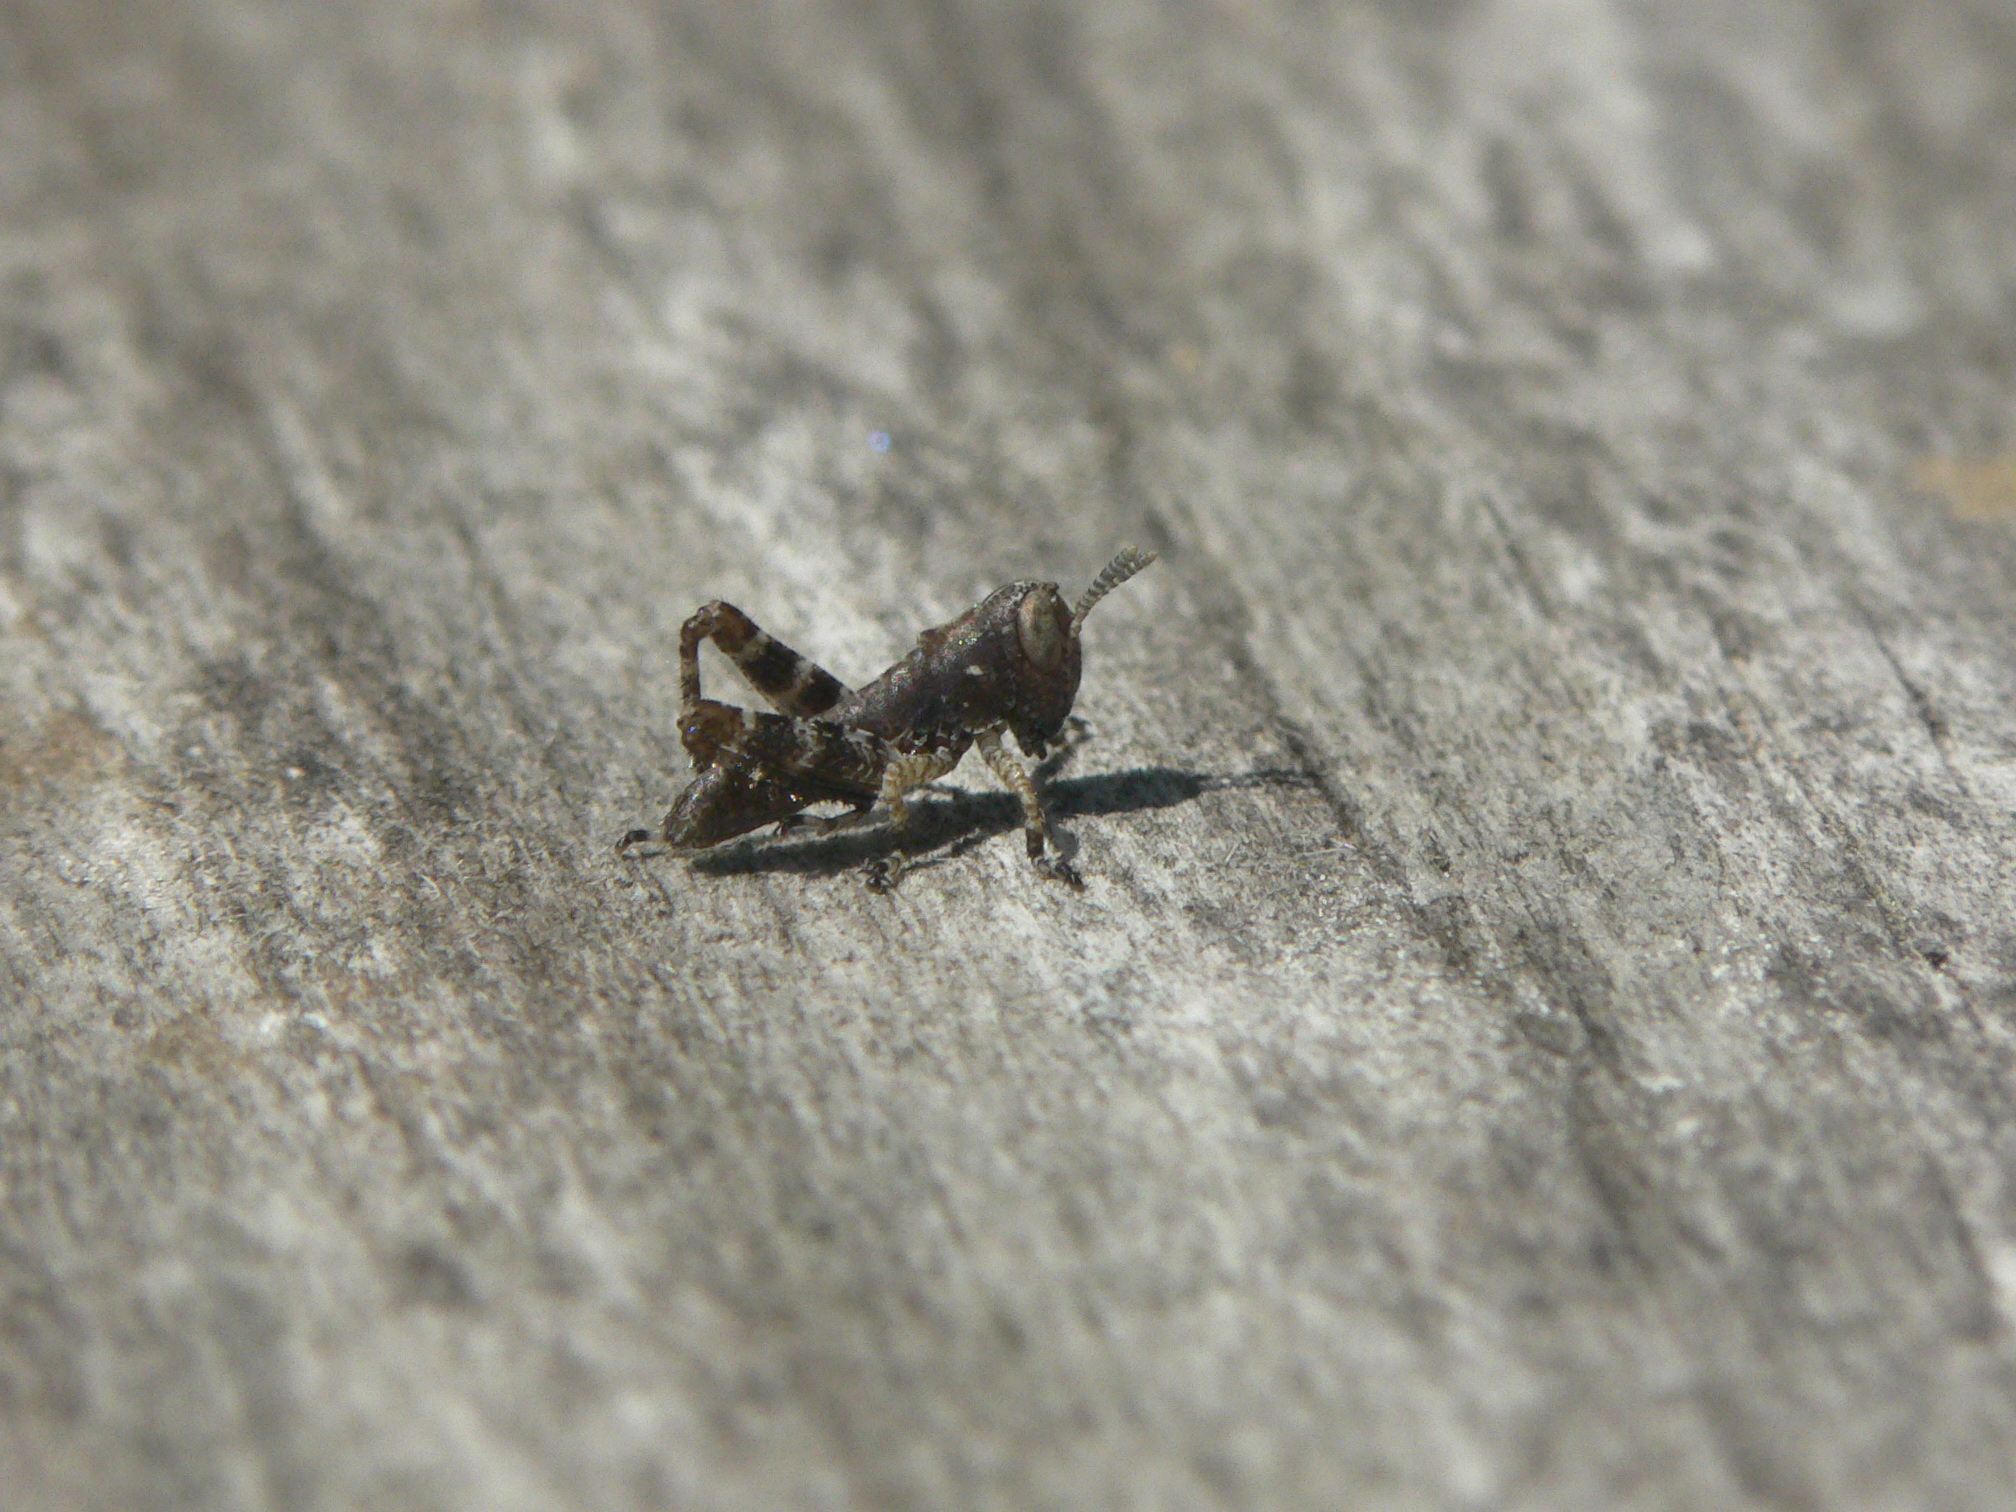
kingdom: Animalia
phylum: Arthropoda
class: Insecta
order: Orthoptera
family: Acrididae
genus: Melanoplus
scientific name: Melanoplus punctulatus
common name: Pine-tree spur-throat grasshopper
